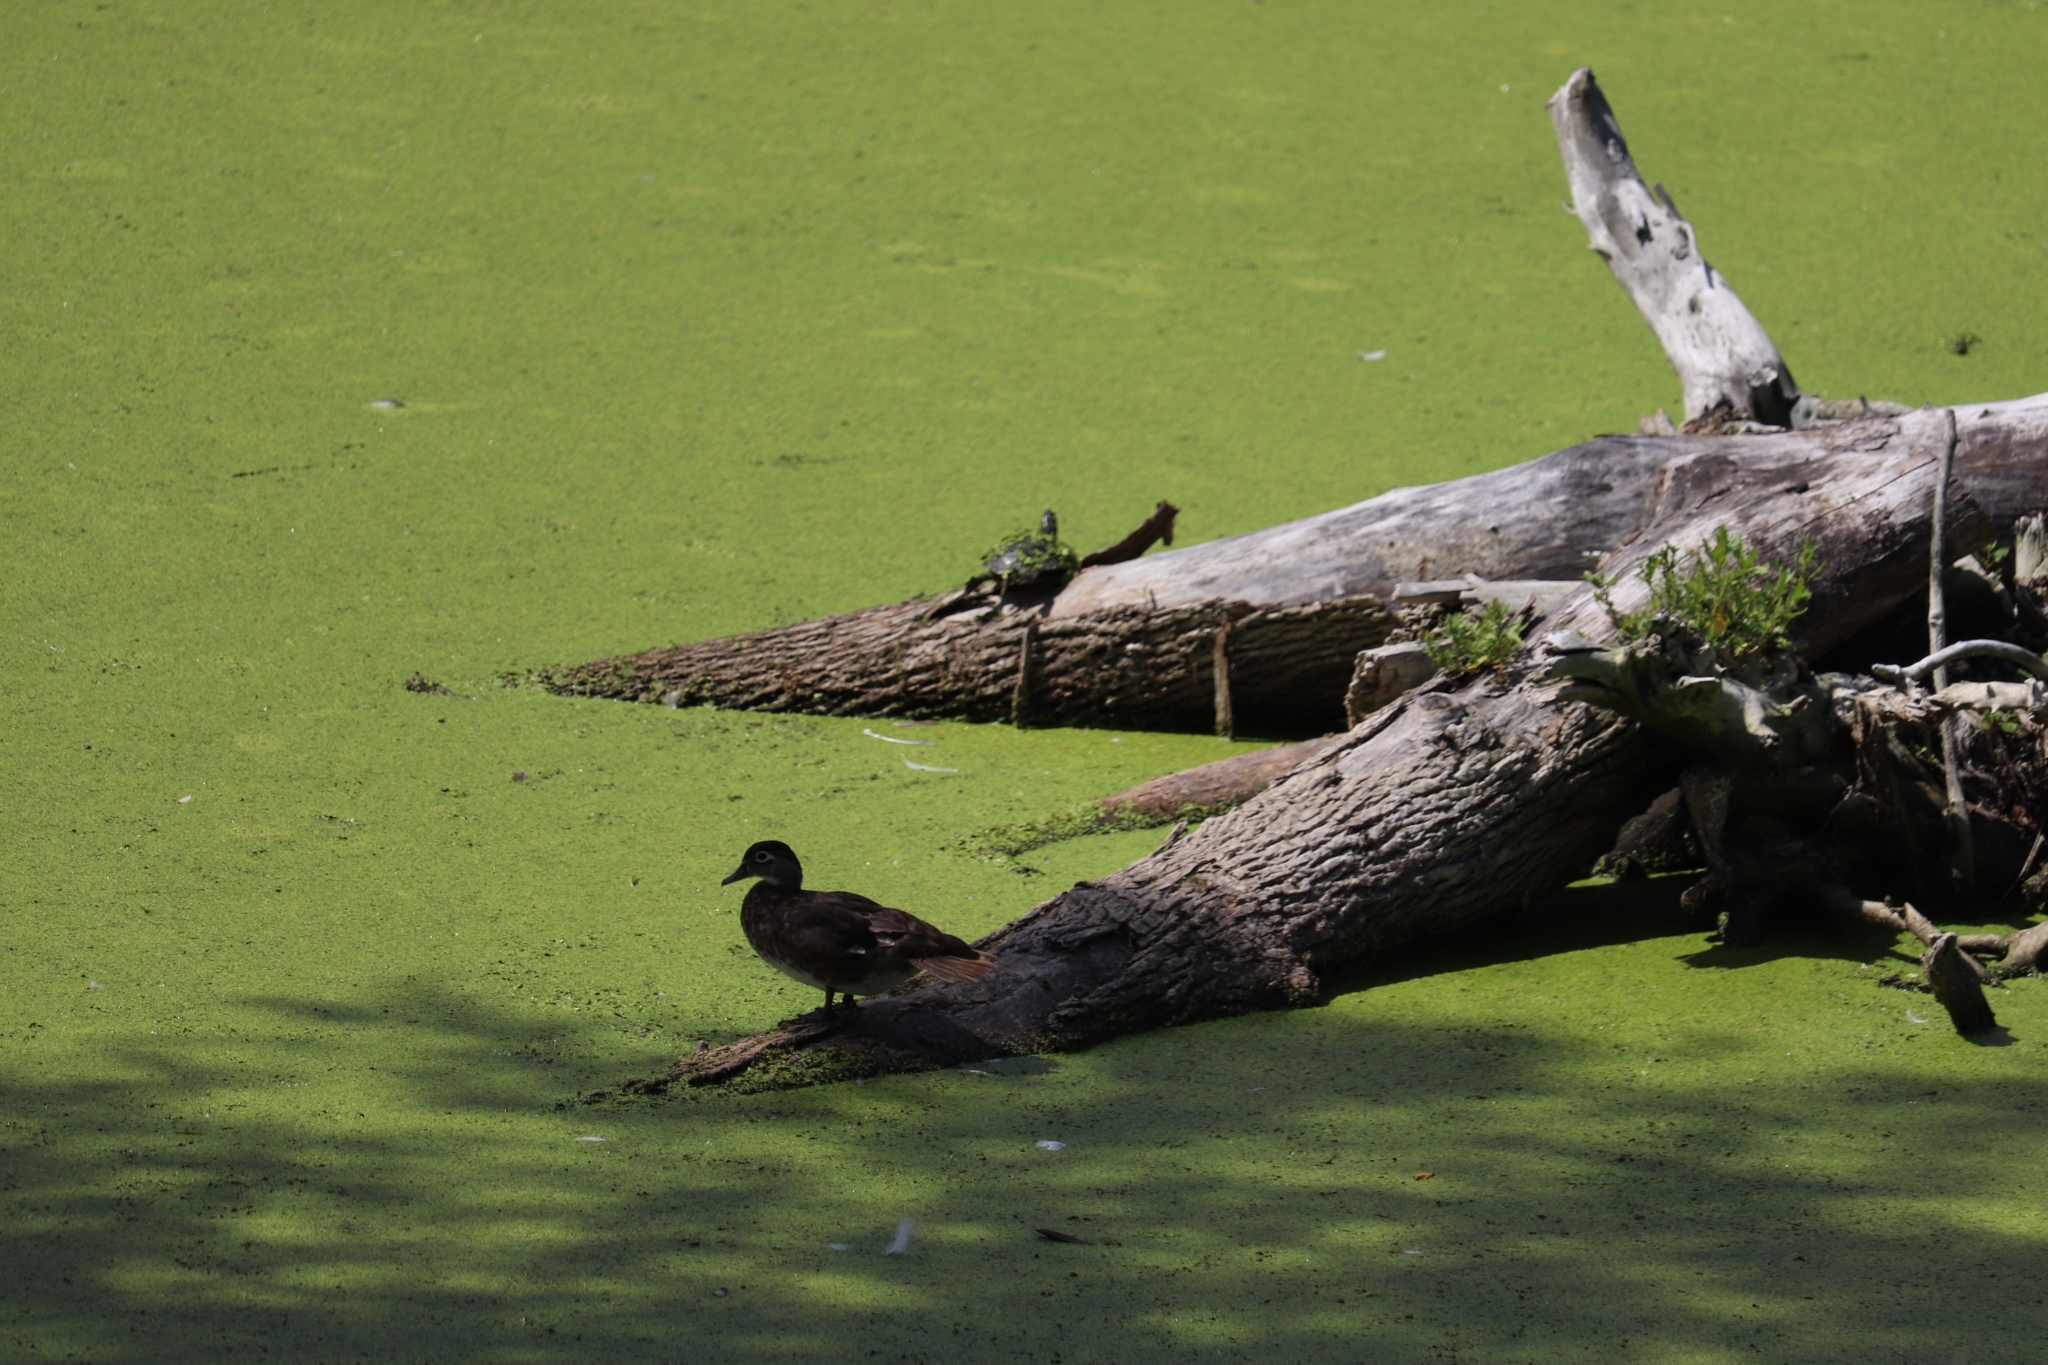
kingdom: Animalia
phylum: Chordata
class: Aves
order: Anseriformes
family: Anatidae
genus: Aix
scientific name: Aix sponsa
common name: Wood duck
